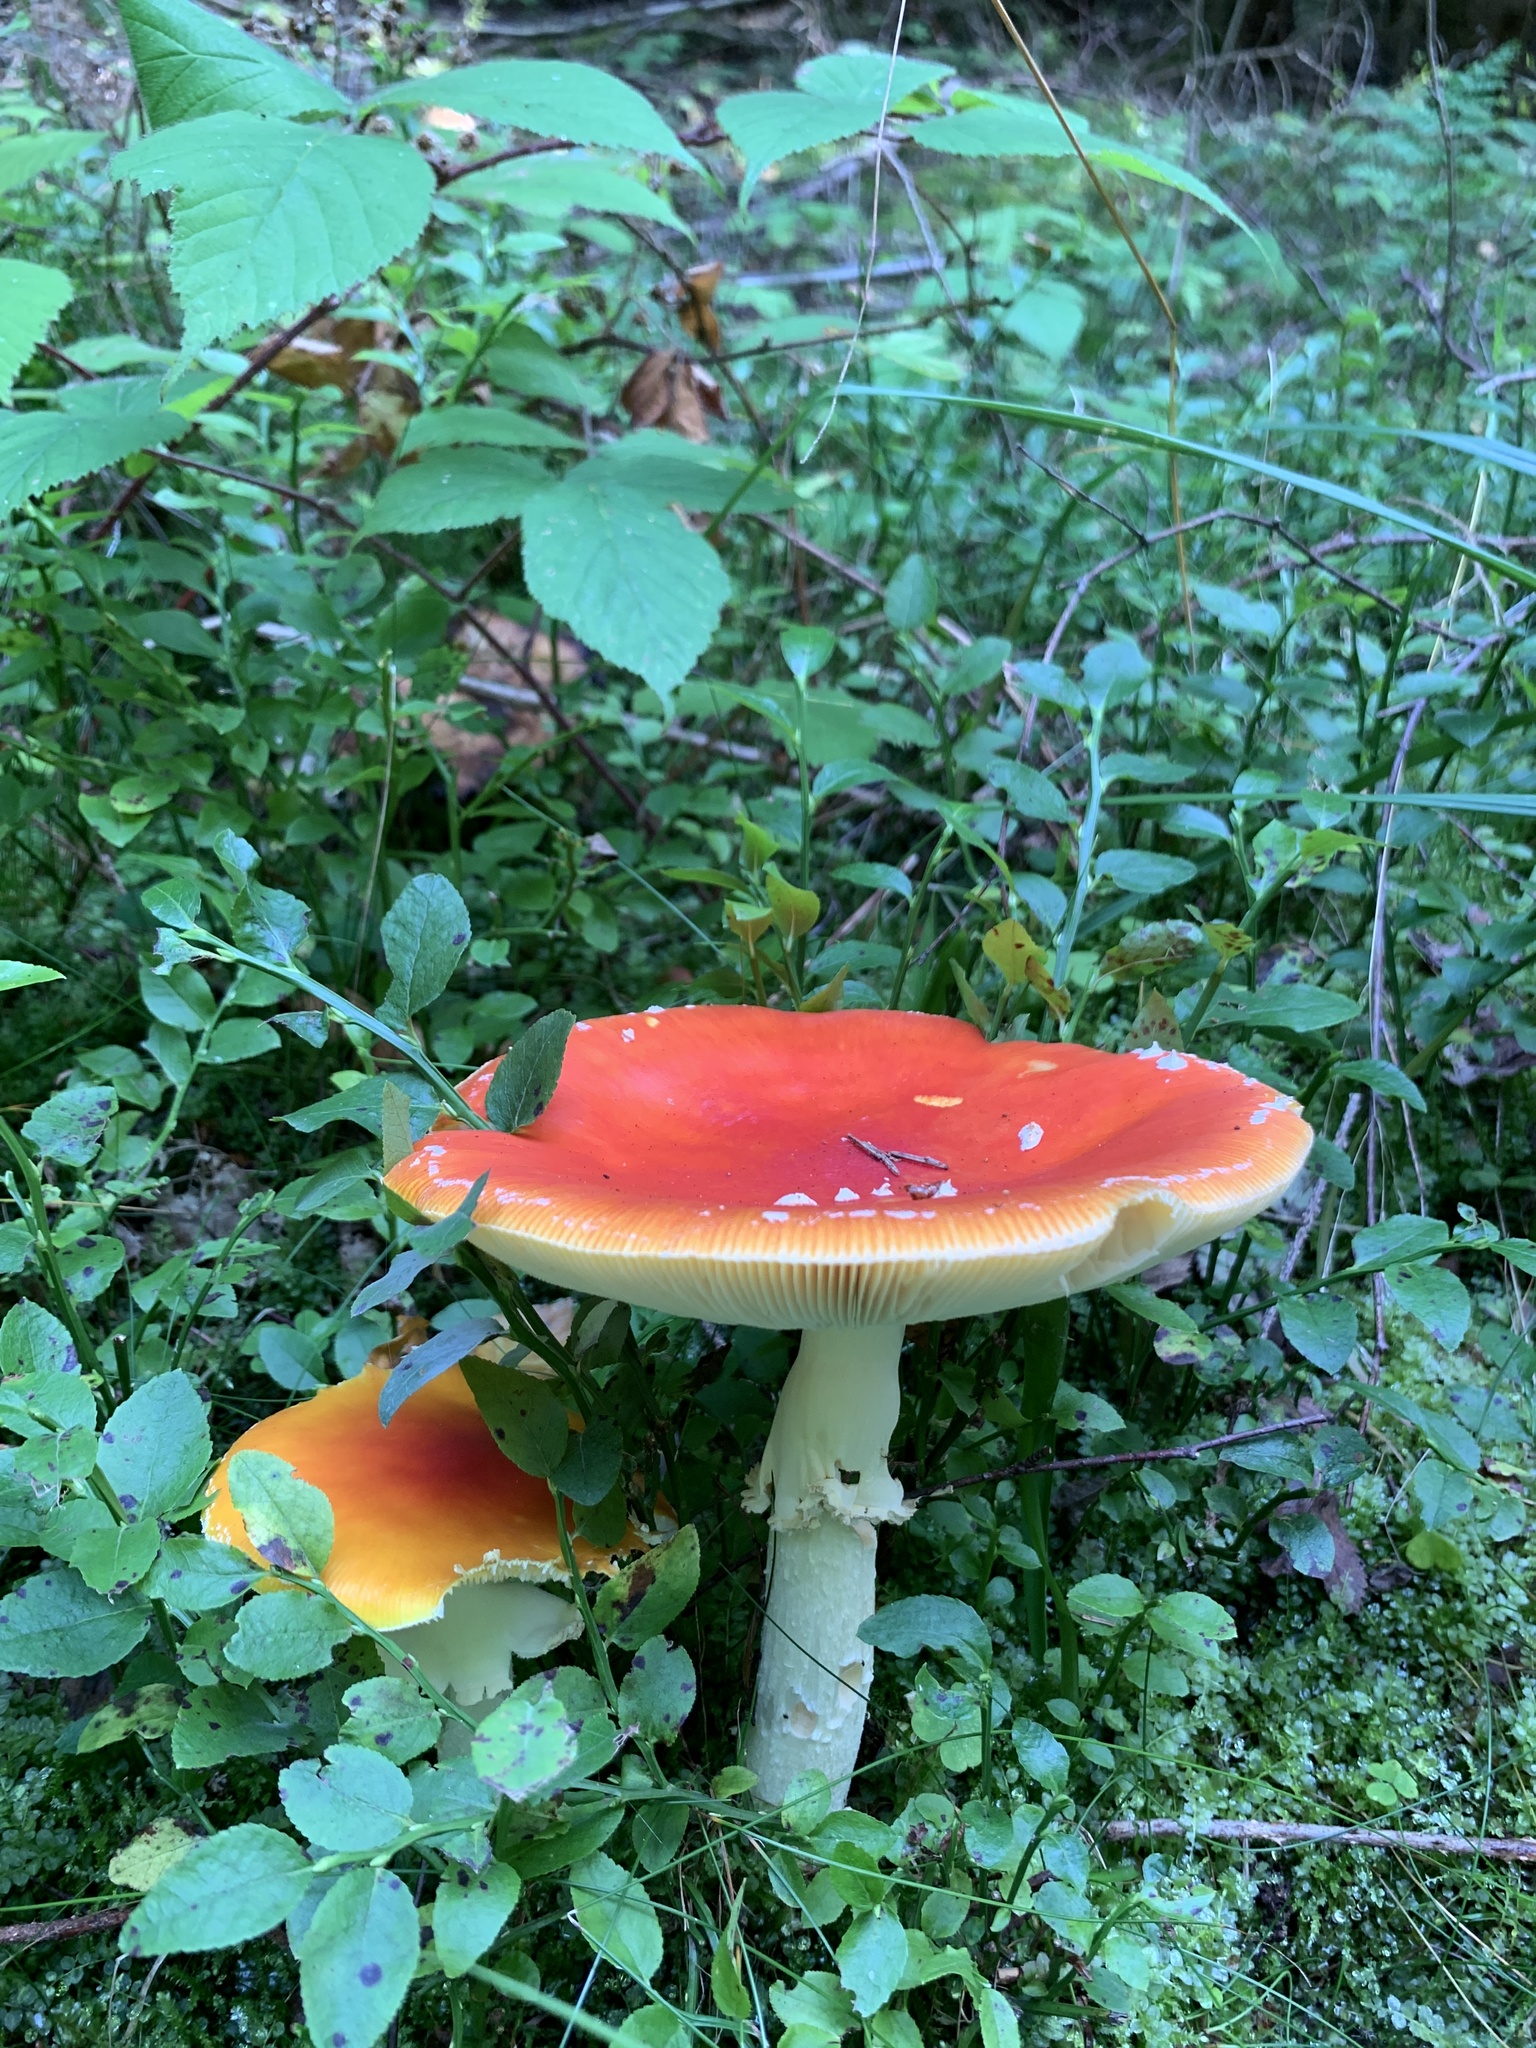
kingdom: Fungi
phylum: Basidiomycota
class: Agaricomycetes
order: Agaricales
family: Amanitaceae
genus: Amanita
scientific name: Amanita muscaria
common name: Fly agaric
